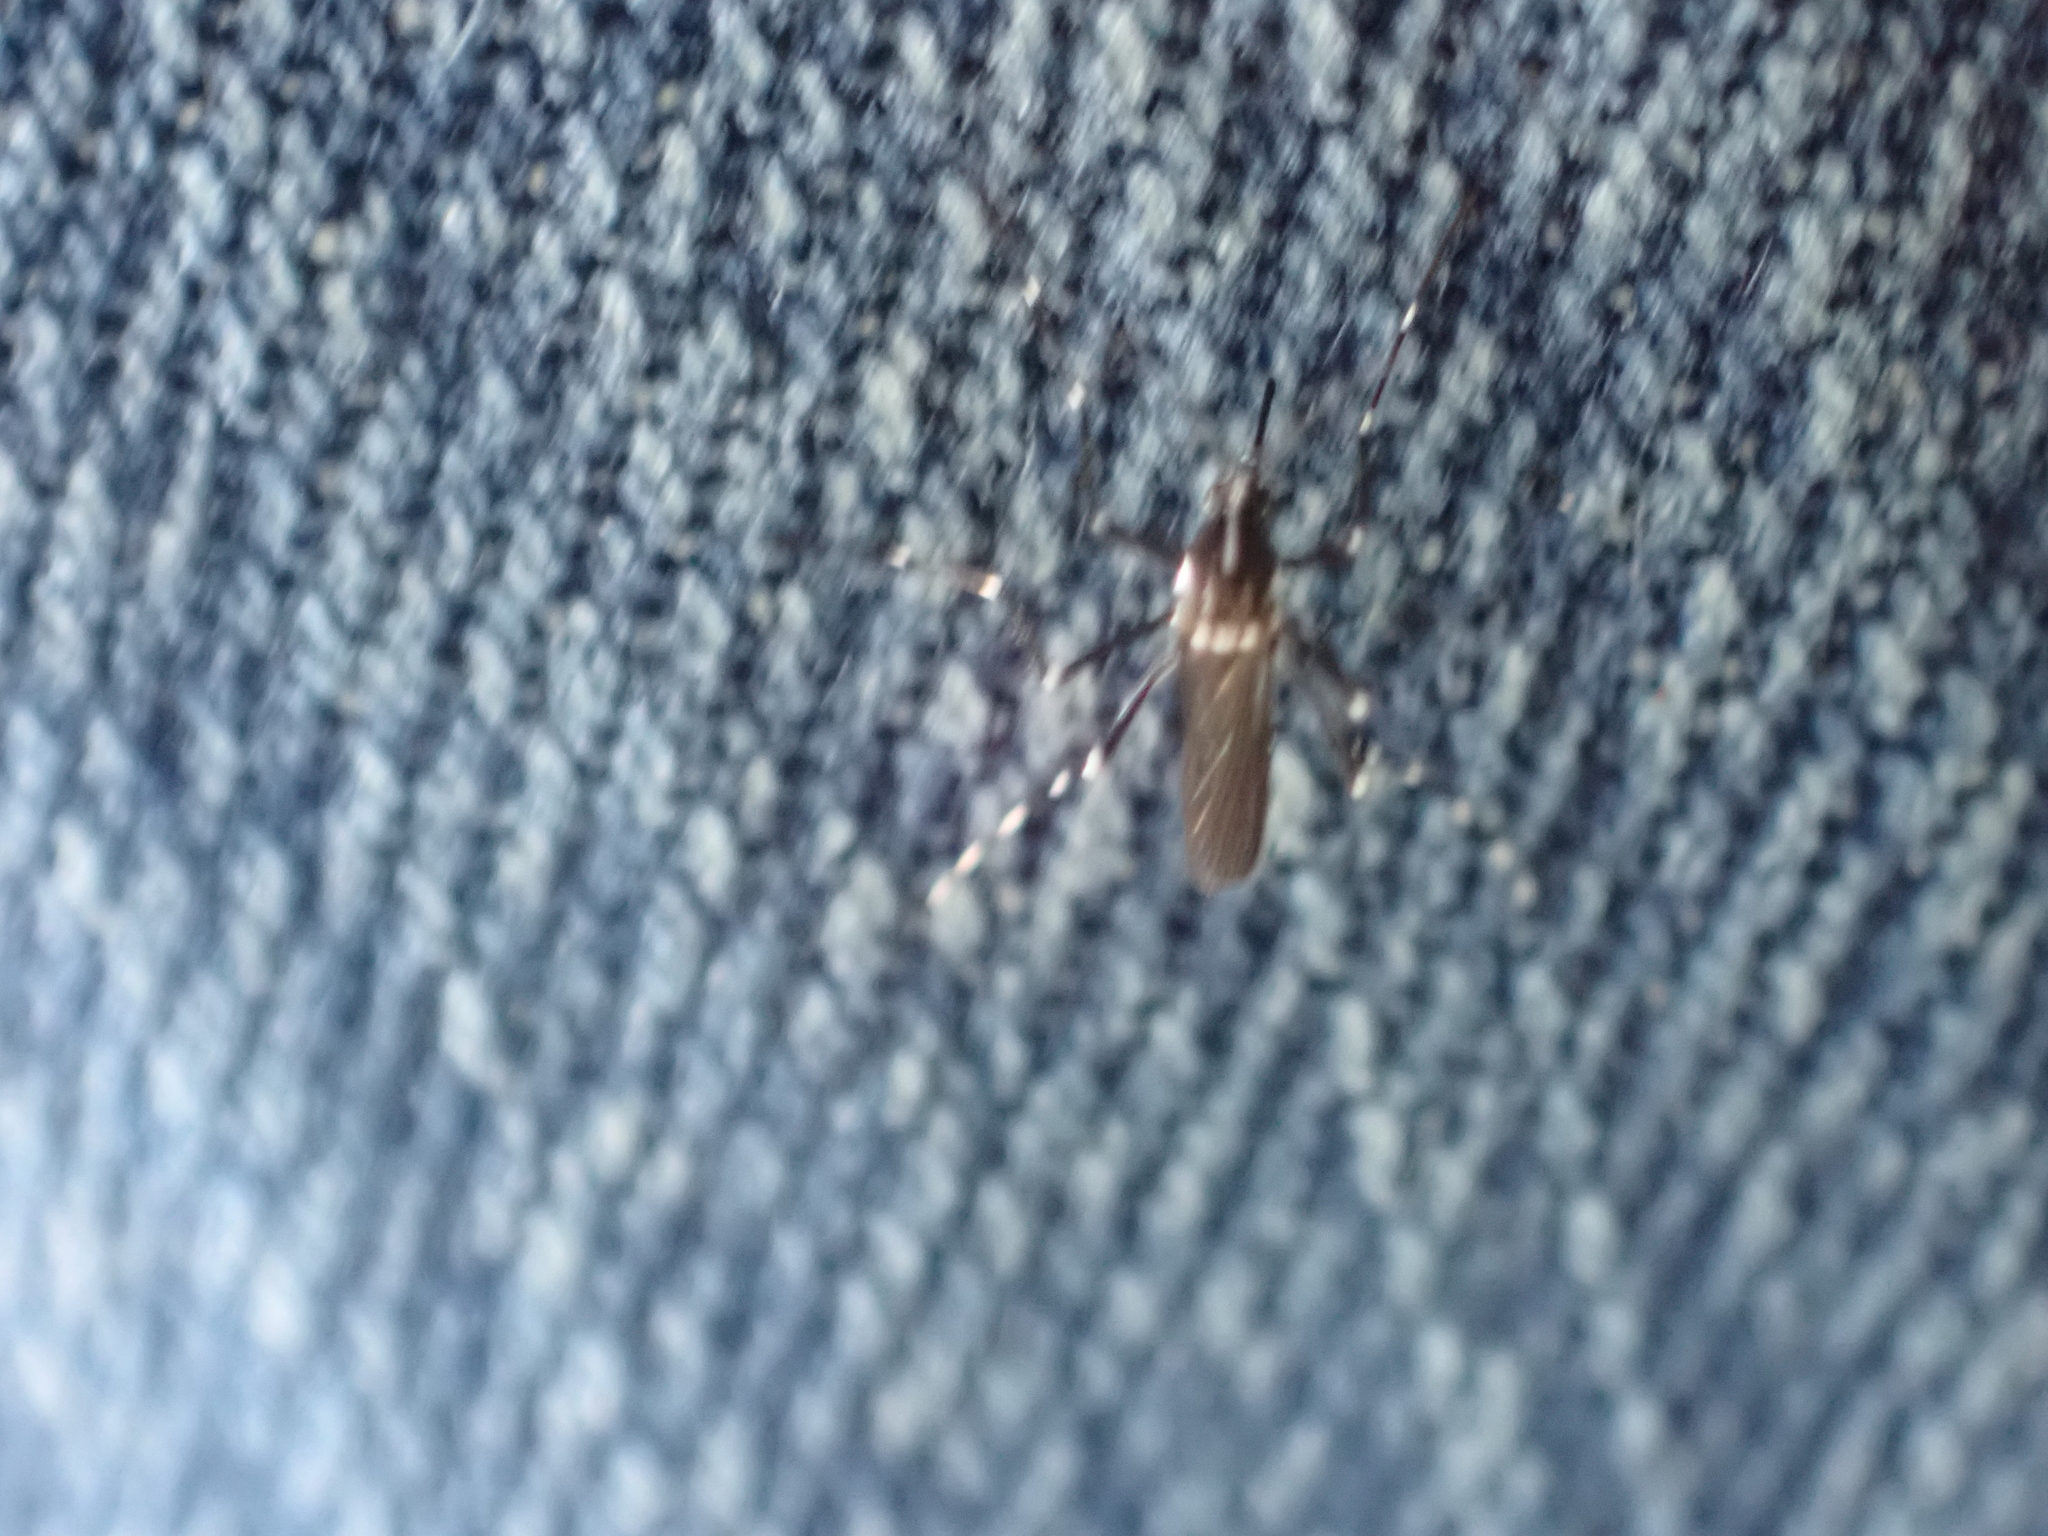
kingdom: Animalia
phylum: Arthropoda
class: Insecta
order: Diptera
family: Culicidae
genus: Aedes
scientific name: Aedes albopictus
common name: Tiger mosquito
